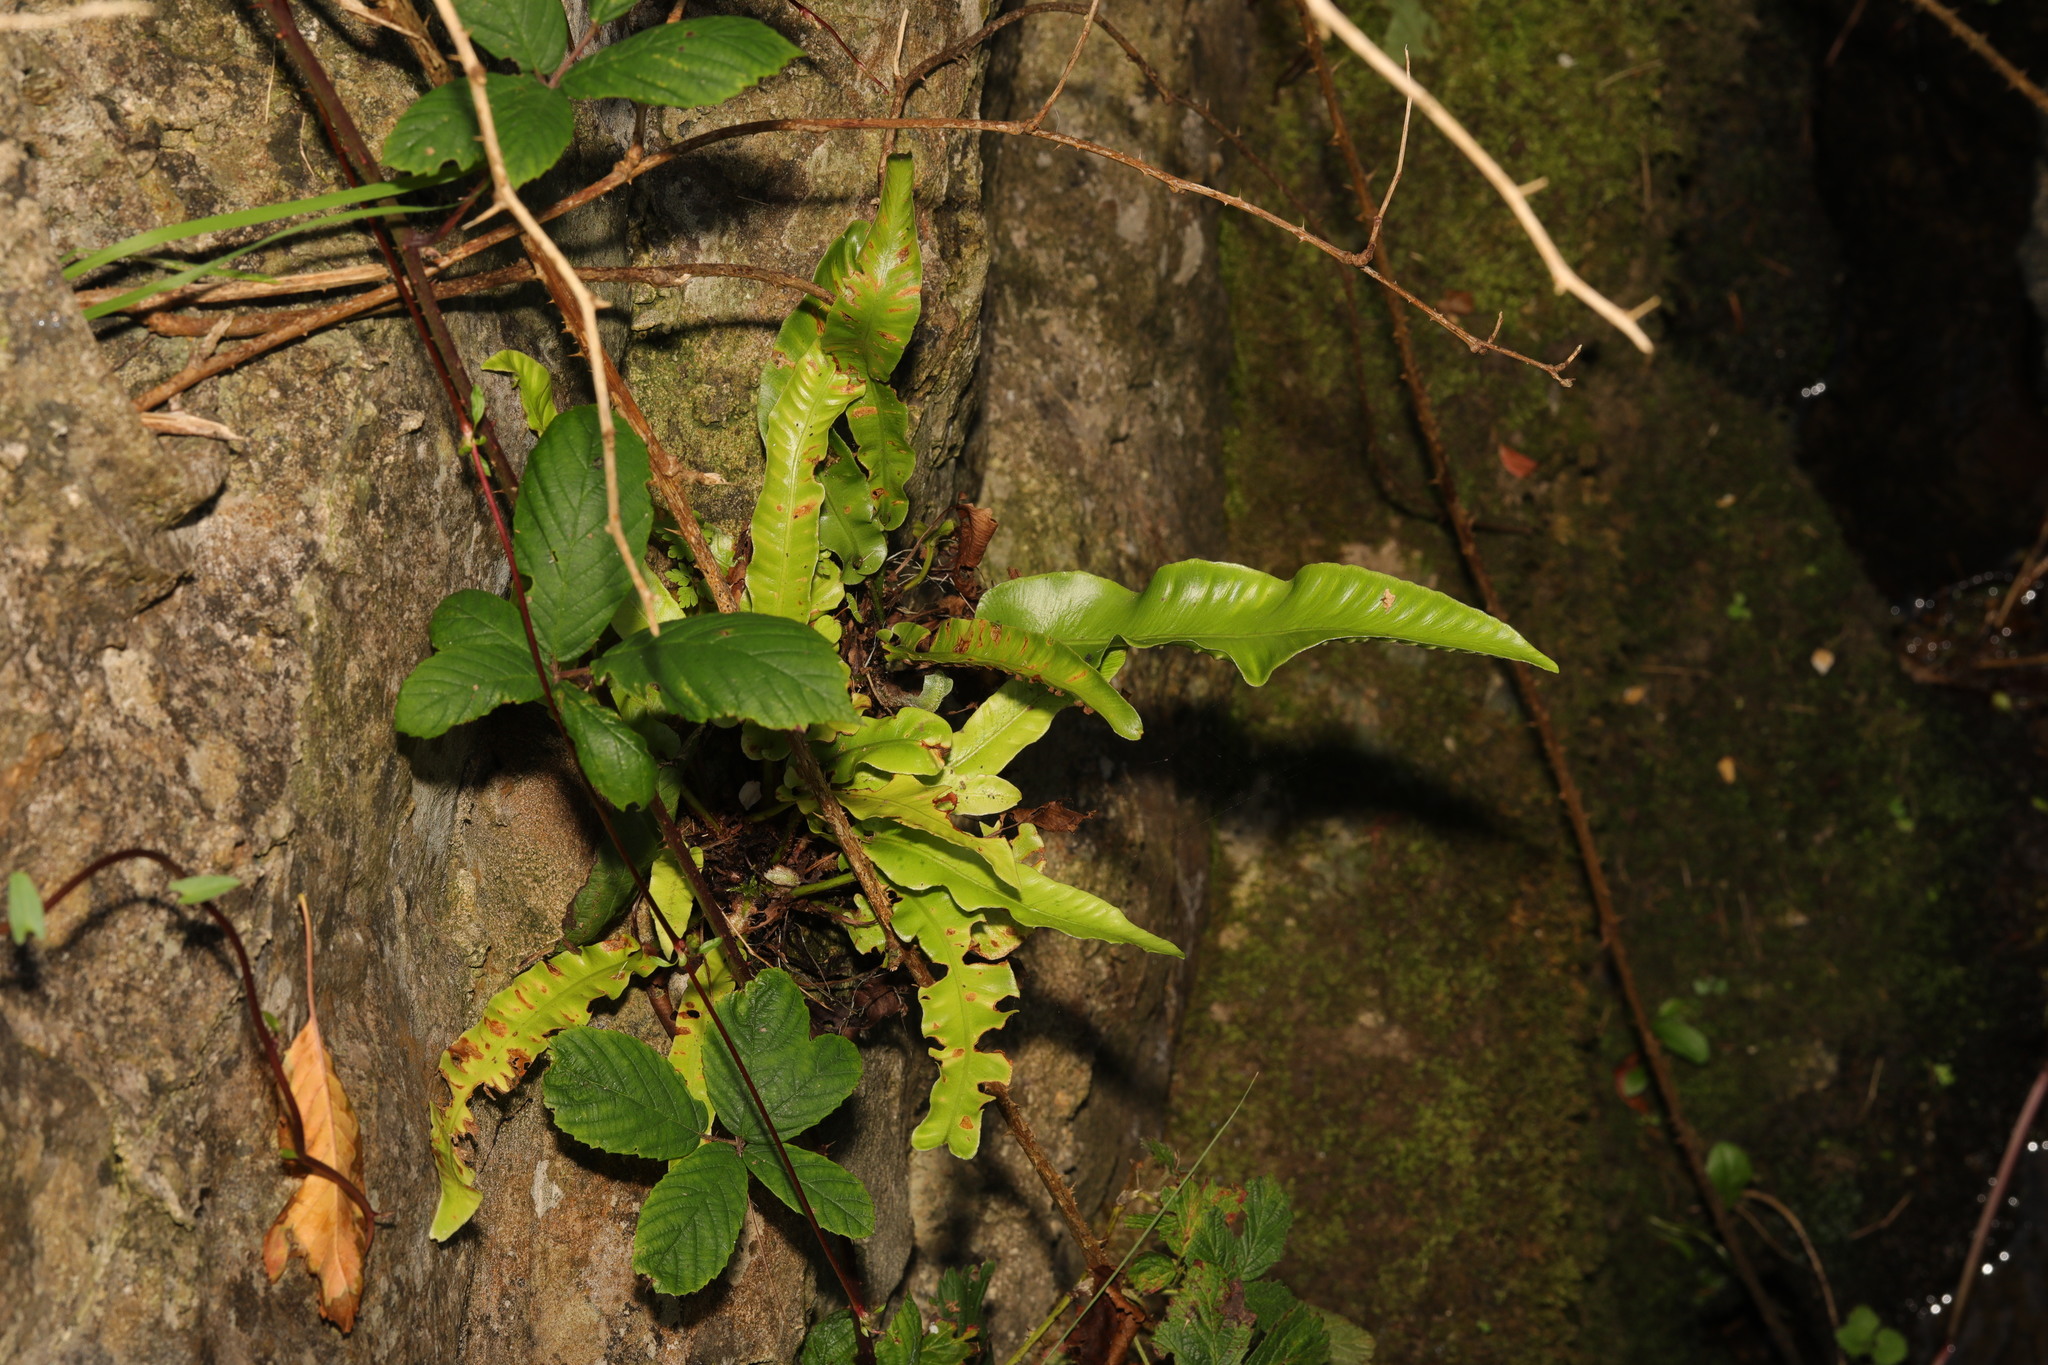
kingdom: Plantae
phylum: Tracheophyta
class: Polypodiopsida
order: Polypodiales
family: Aspleniaceae
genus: Asplenium
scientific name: Asplenium scolopendrium
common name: Hart's-tongue fern
